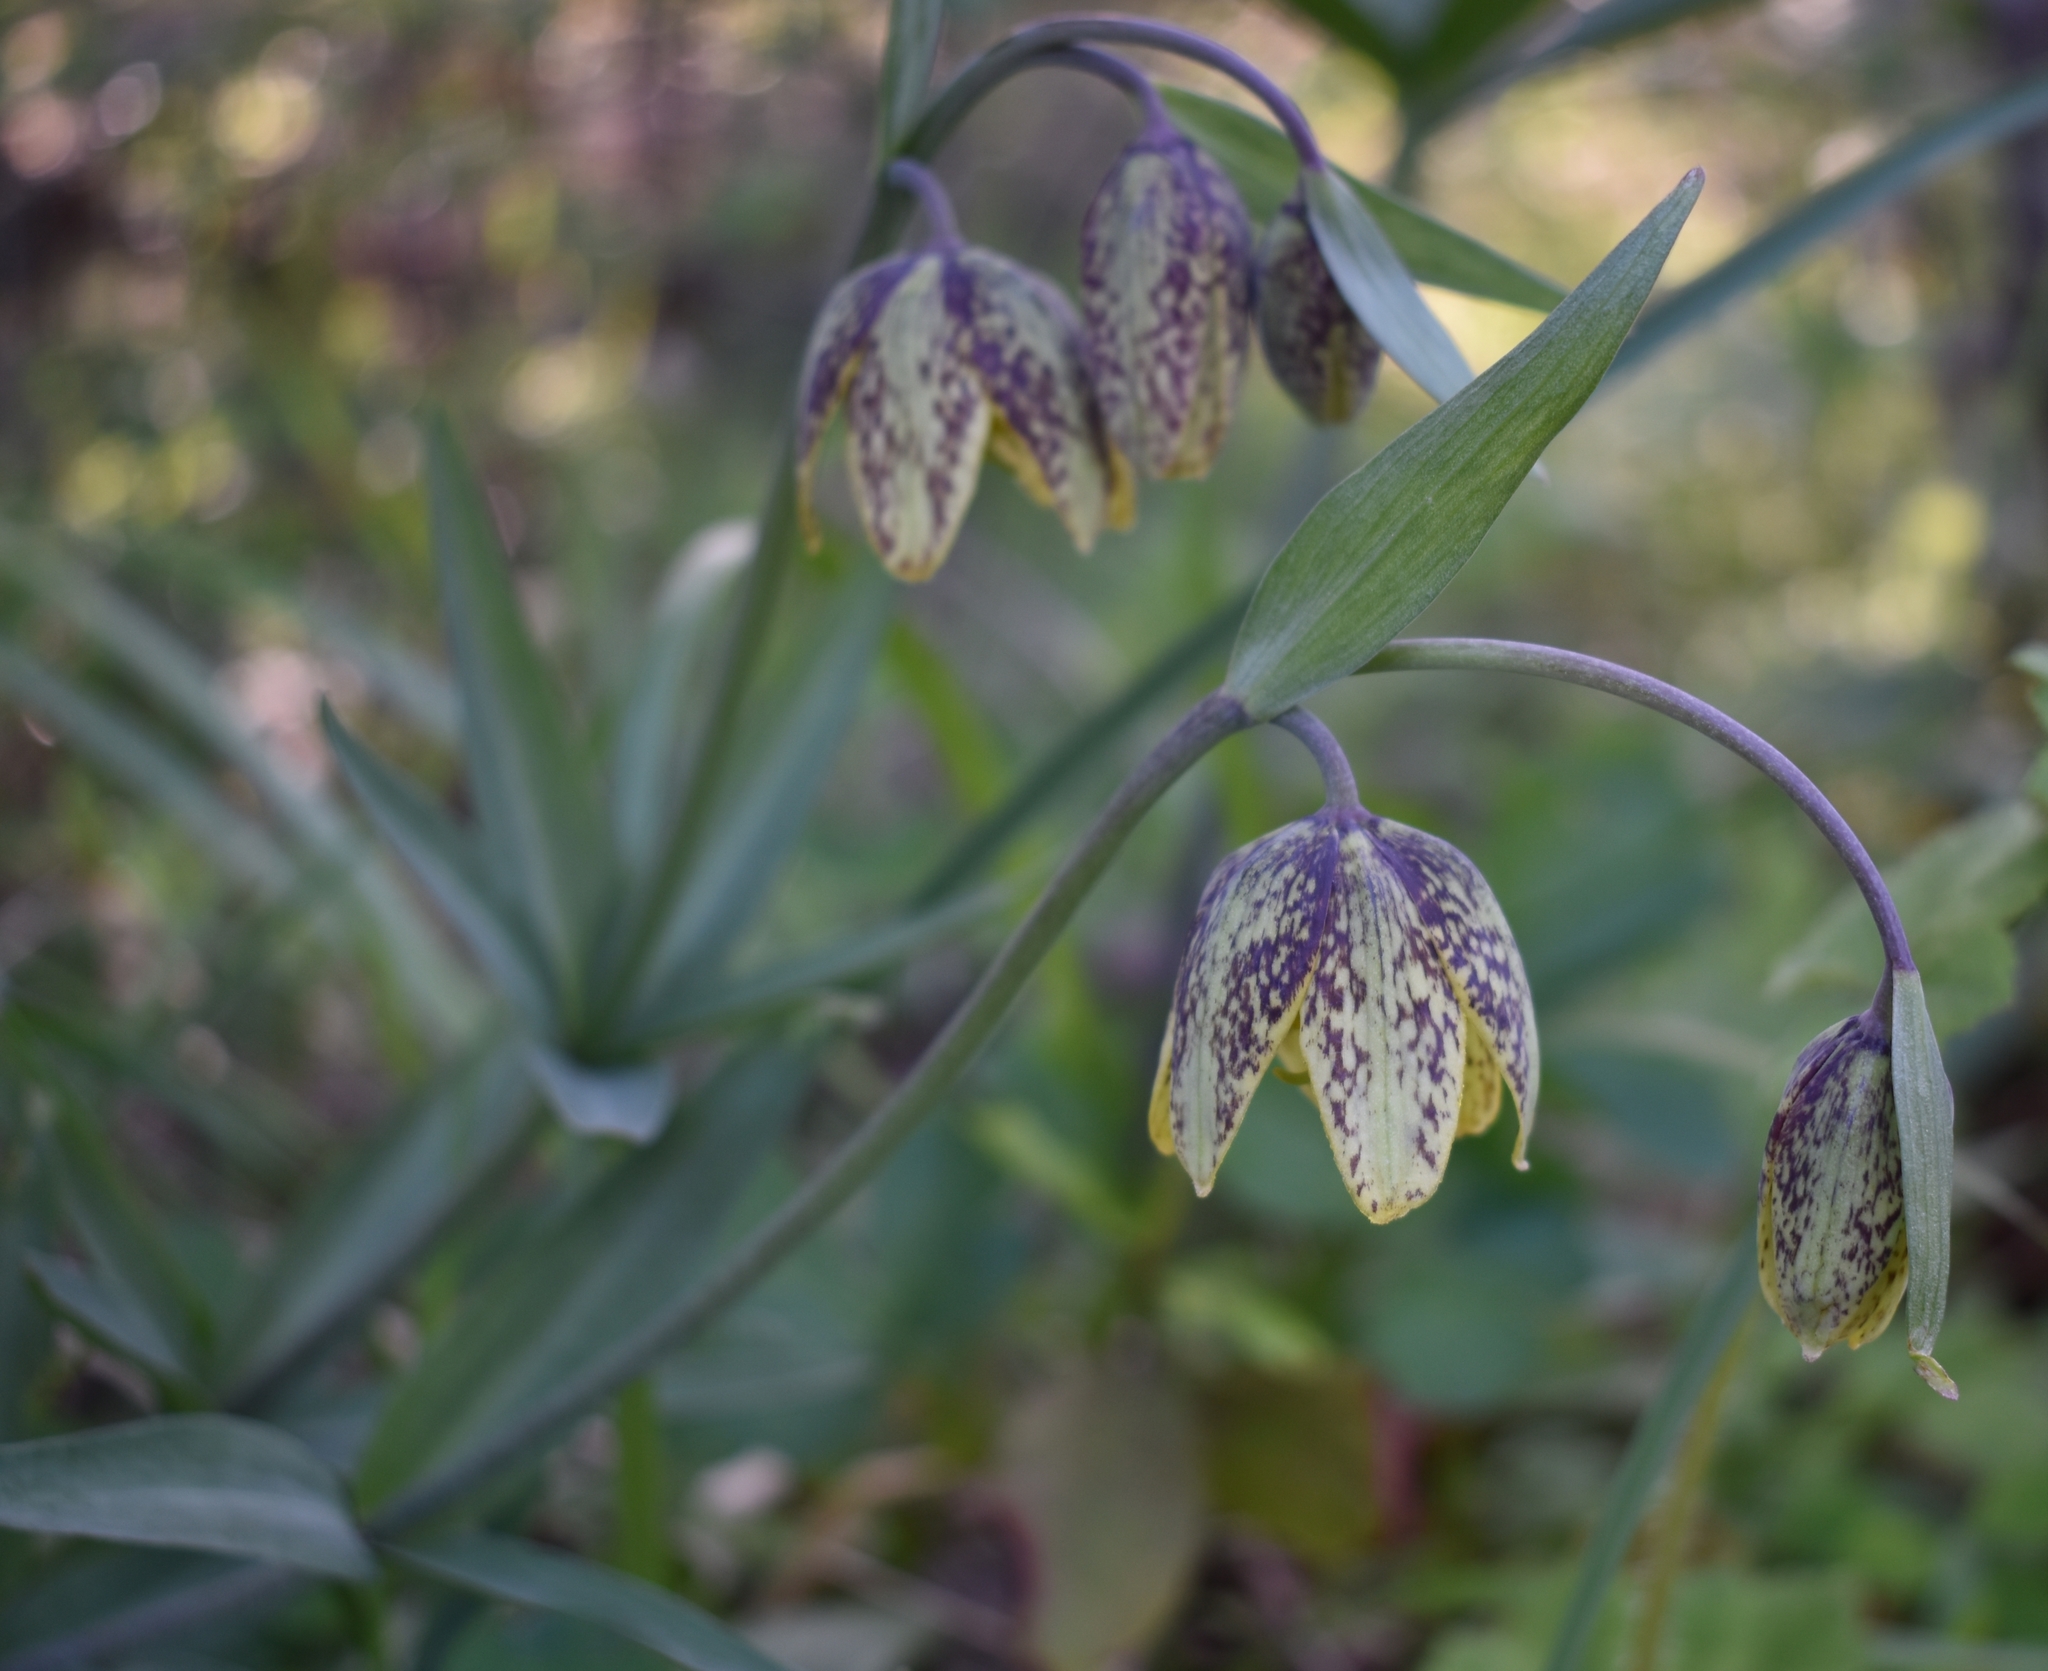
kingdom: Plantae
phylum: Tracheophyta
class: Liliopsida
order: Liliales
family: Liliaceae
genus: Fritillaria
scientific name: Fritillaria affinis
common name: Ojai fritillary
